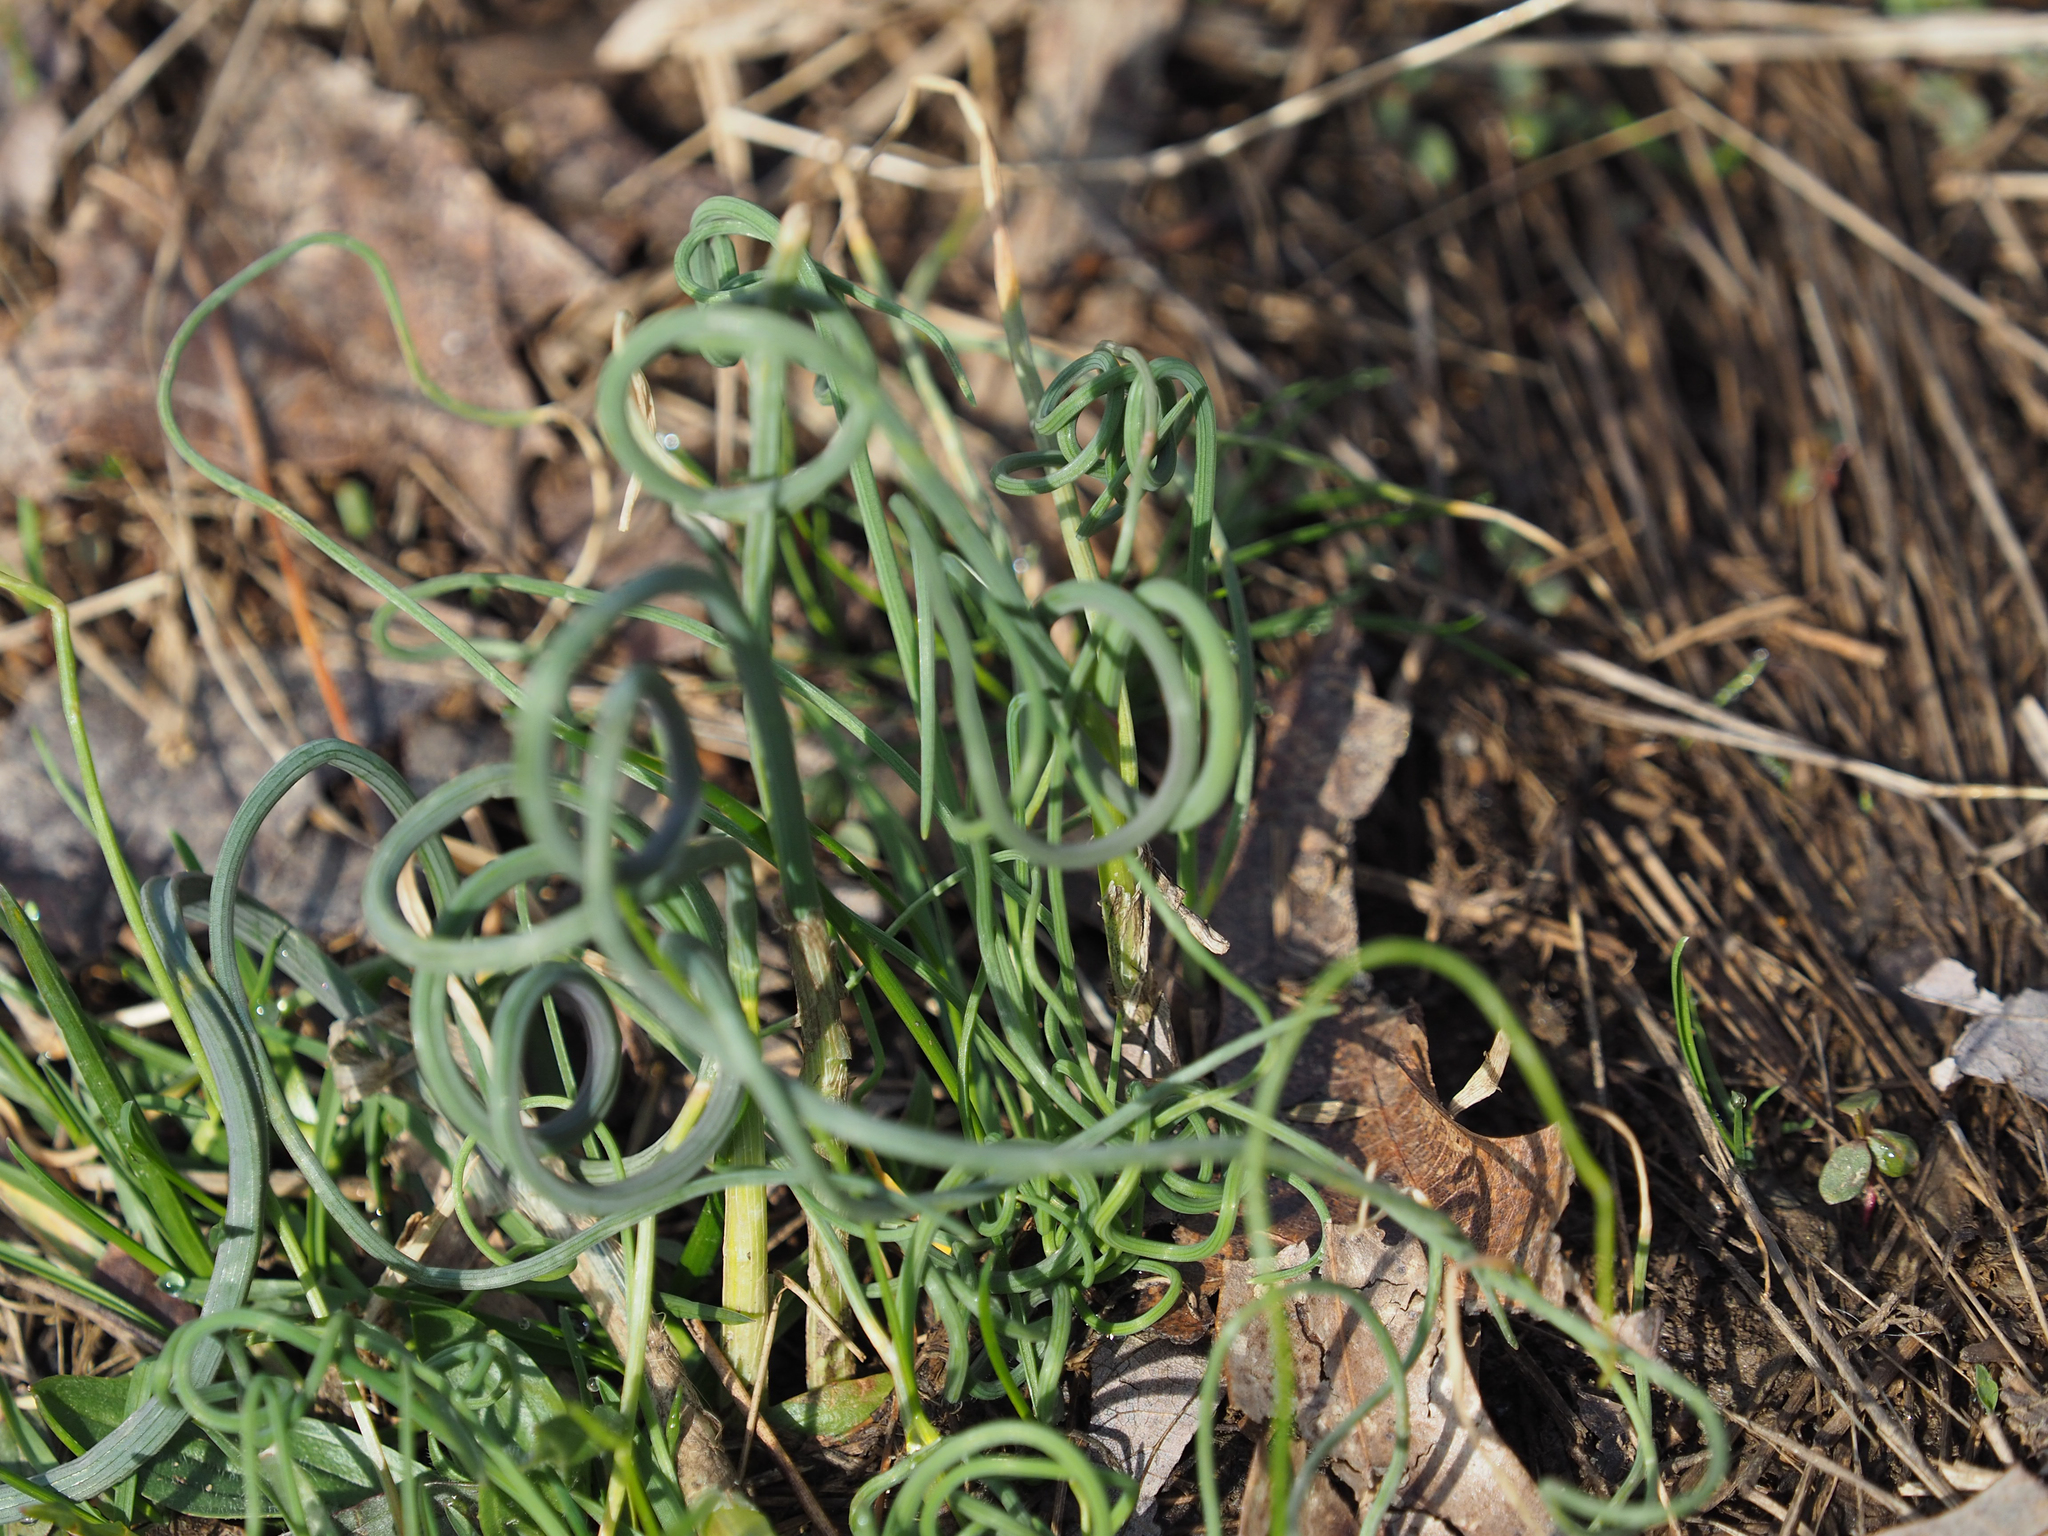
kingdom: Plantae
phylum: Tracheophyta
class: Liliopsida
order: Asparagales
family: Amaryllidaceae
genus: Allium
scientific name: Allium vineale
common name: Crow garlic
